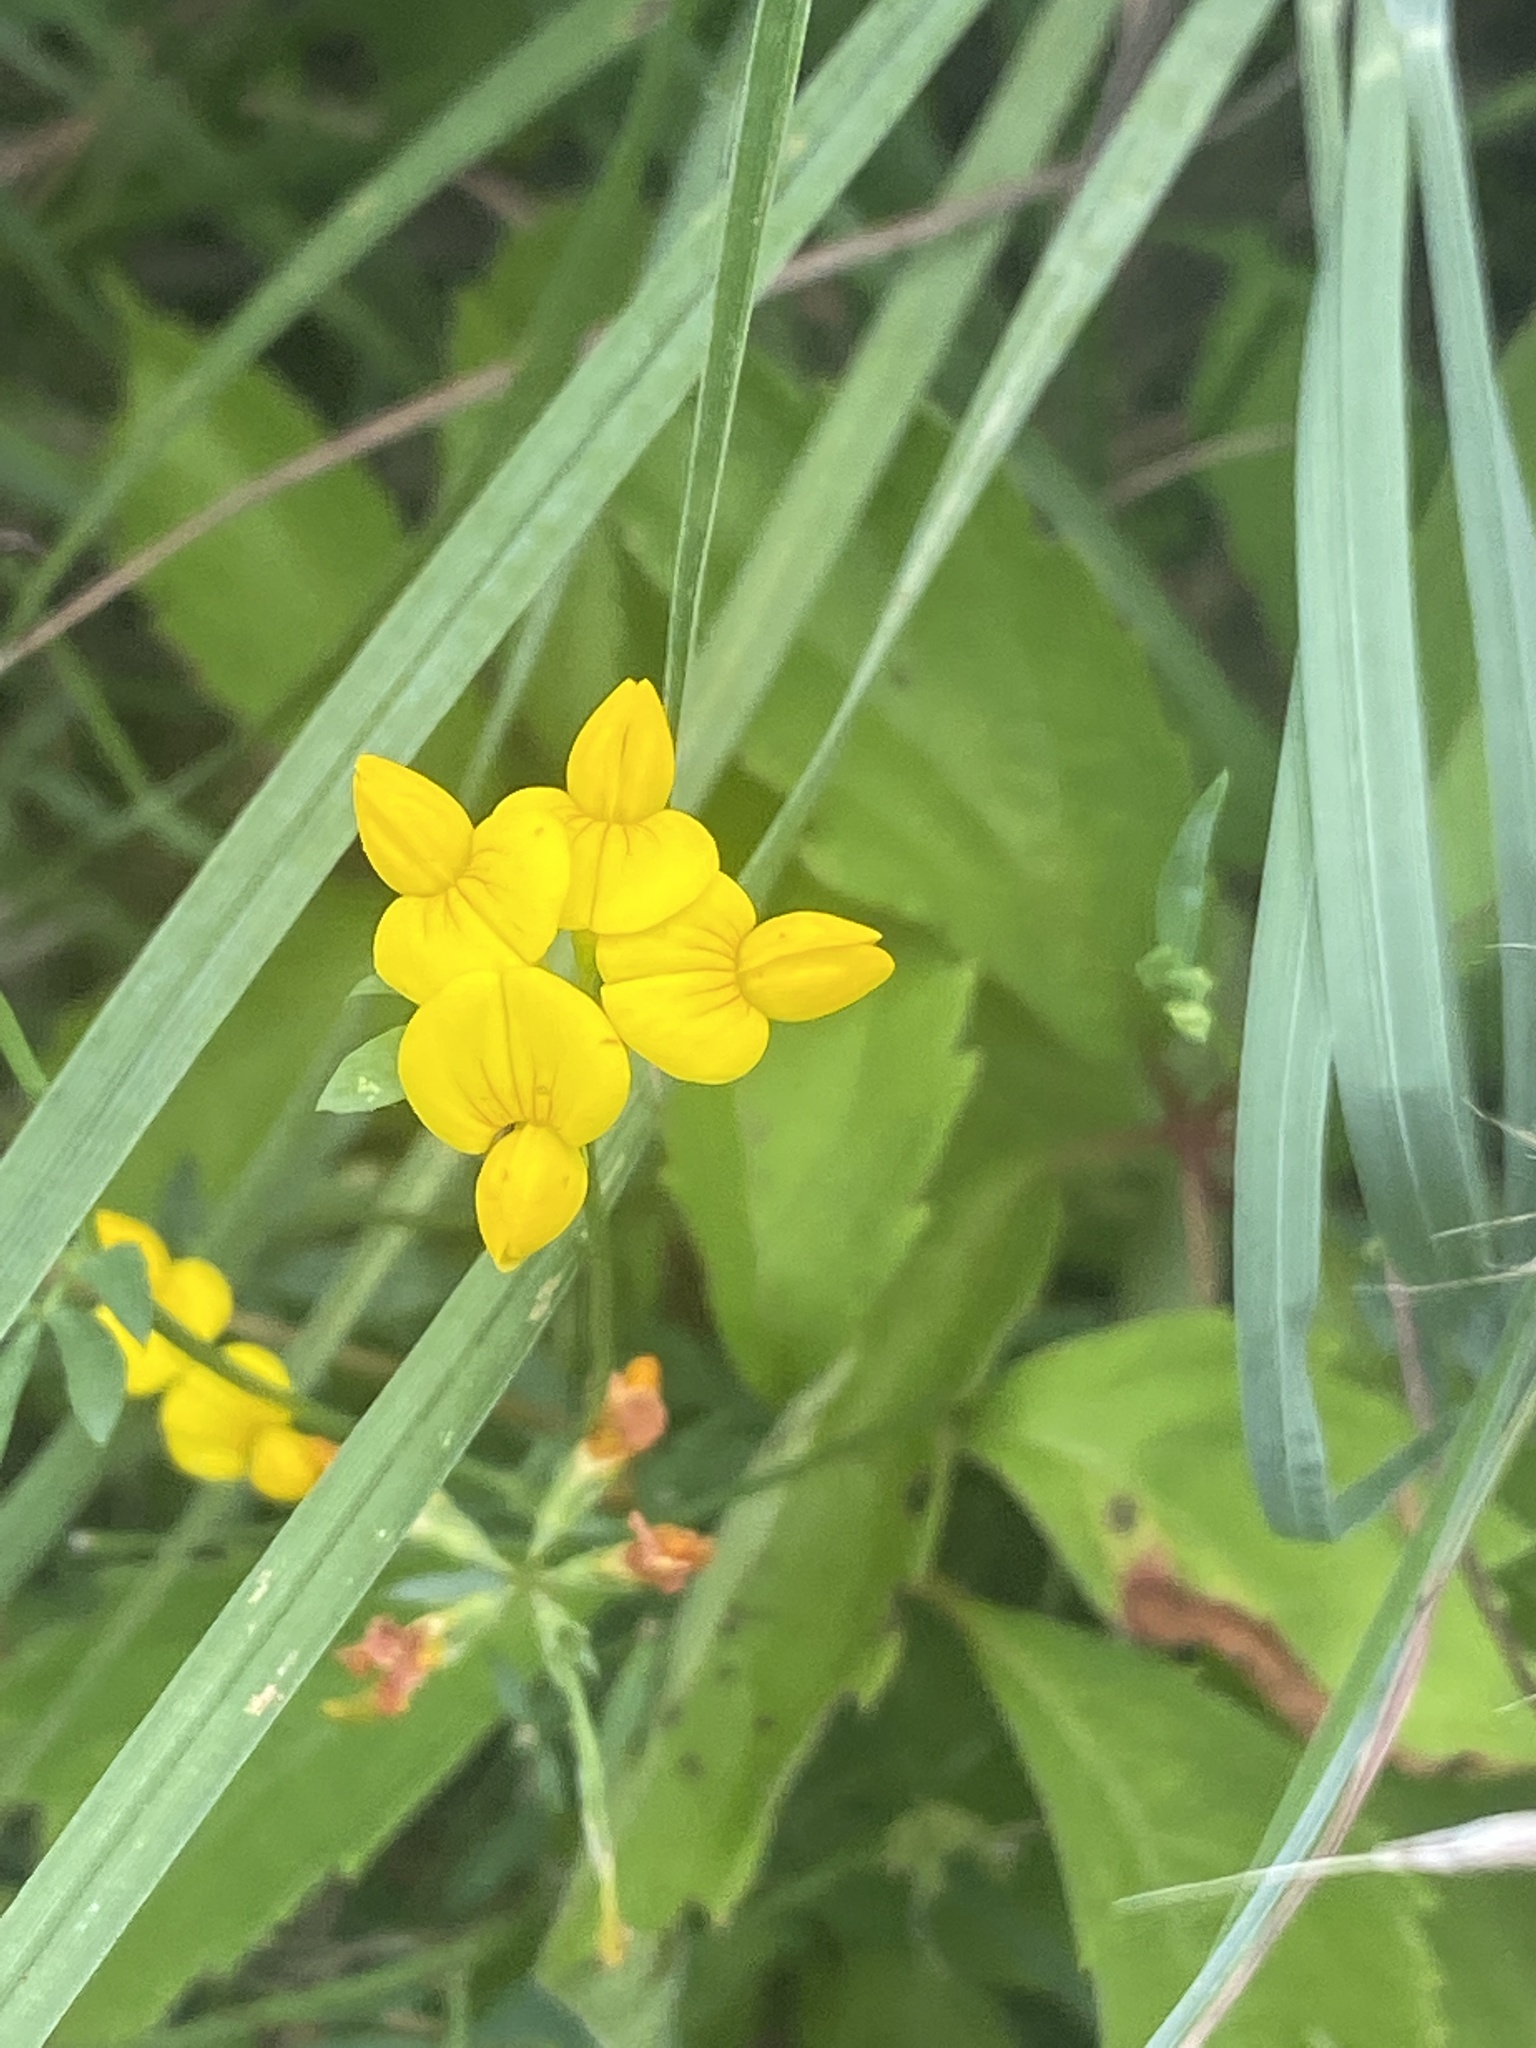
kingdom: Plantae
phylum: Tracheophyta
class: Magnoliopsida
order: Fabales
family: Fabaceae
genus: Lotus
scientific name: Lotus corniculatus
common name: Common bird's-foot-trefoil
